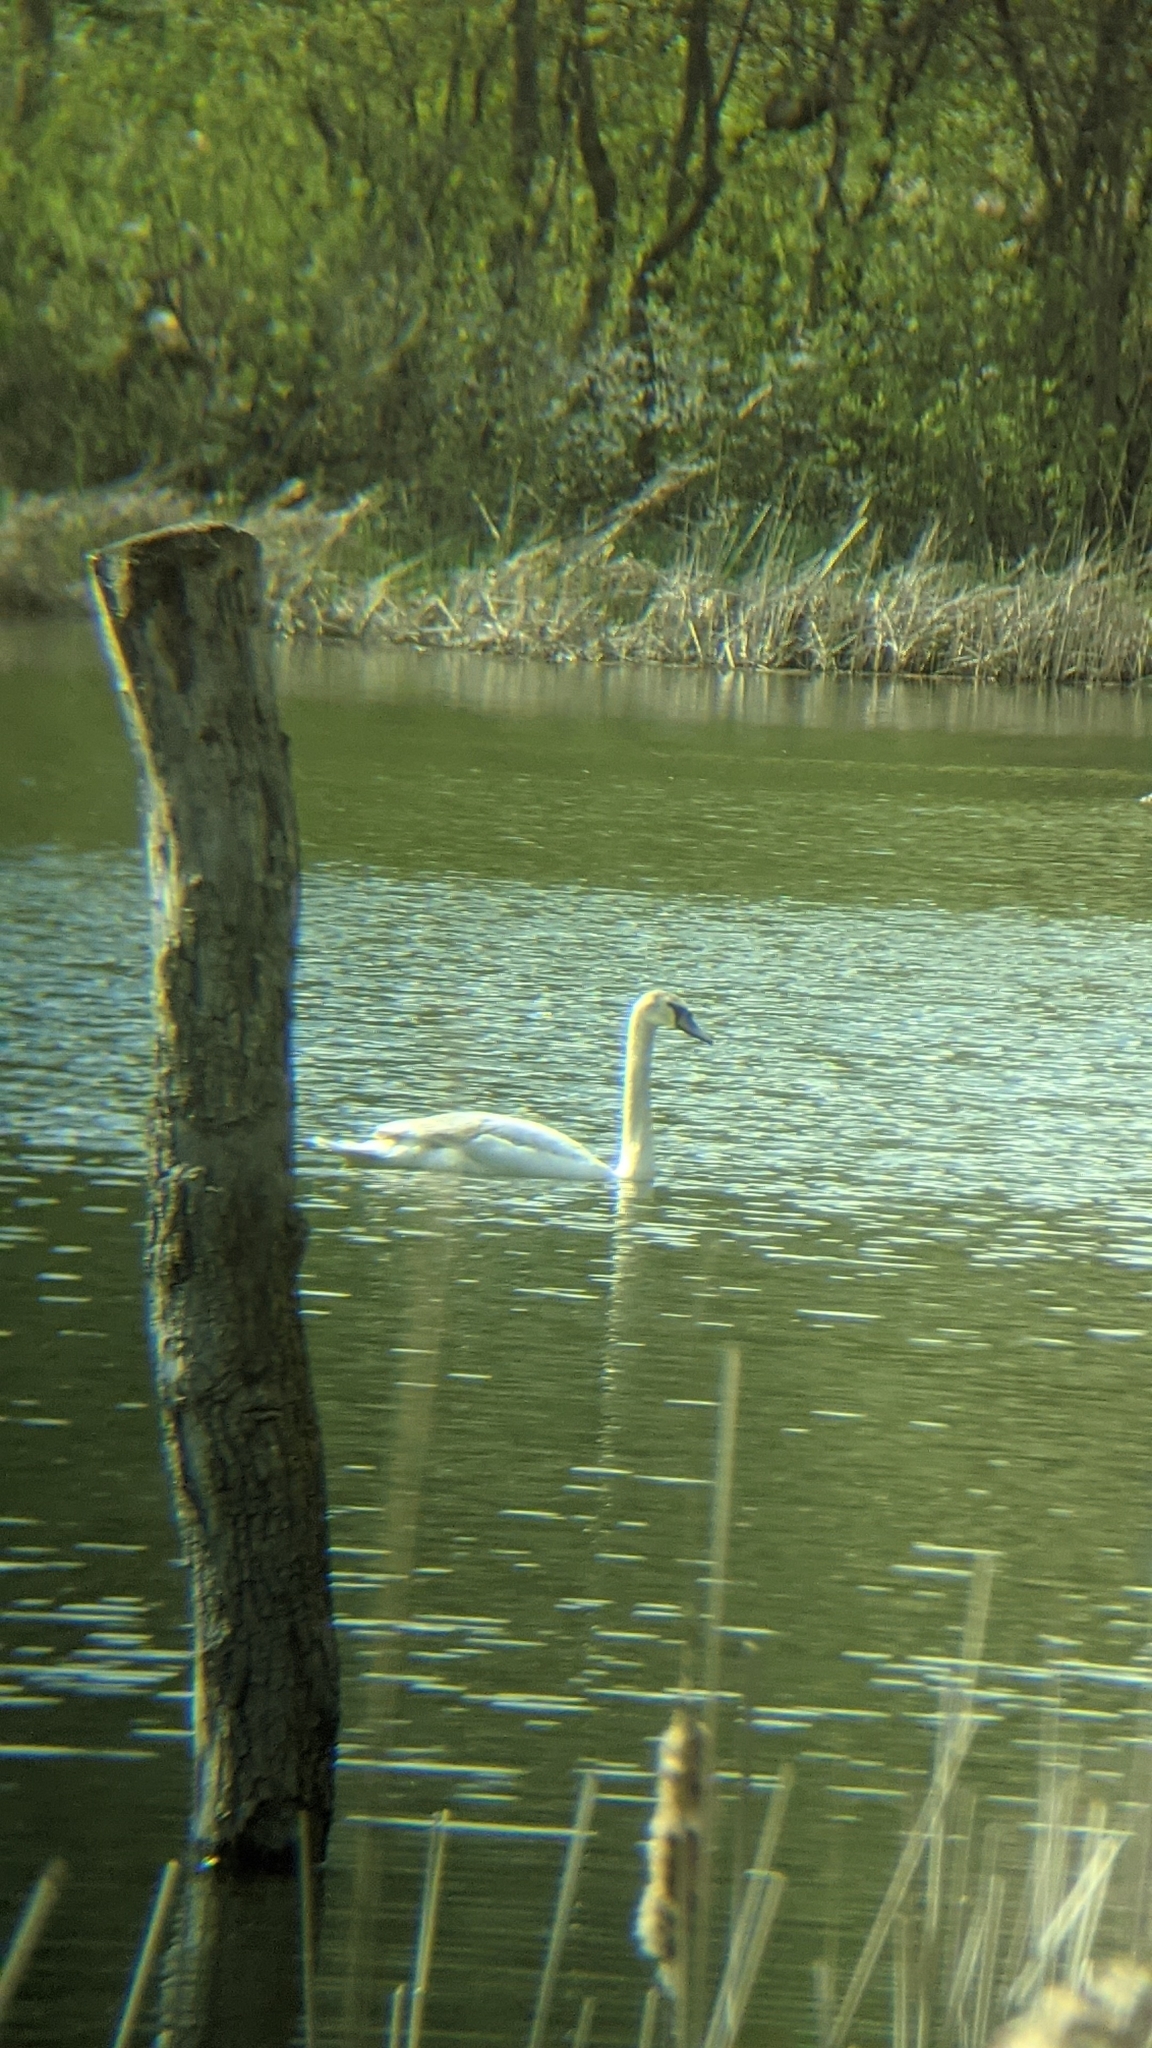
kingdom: Animalia
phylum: Chordata
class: Aves
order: Anseriformes
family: Anatidae
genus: Cygnus
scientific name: Cygnus olor
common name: Mute swan
